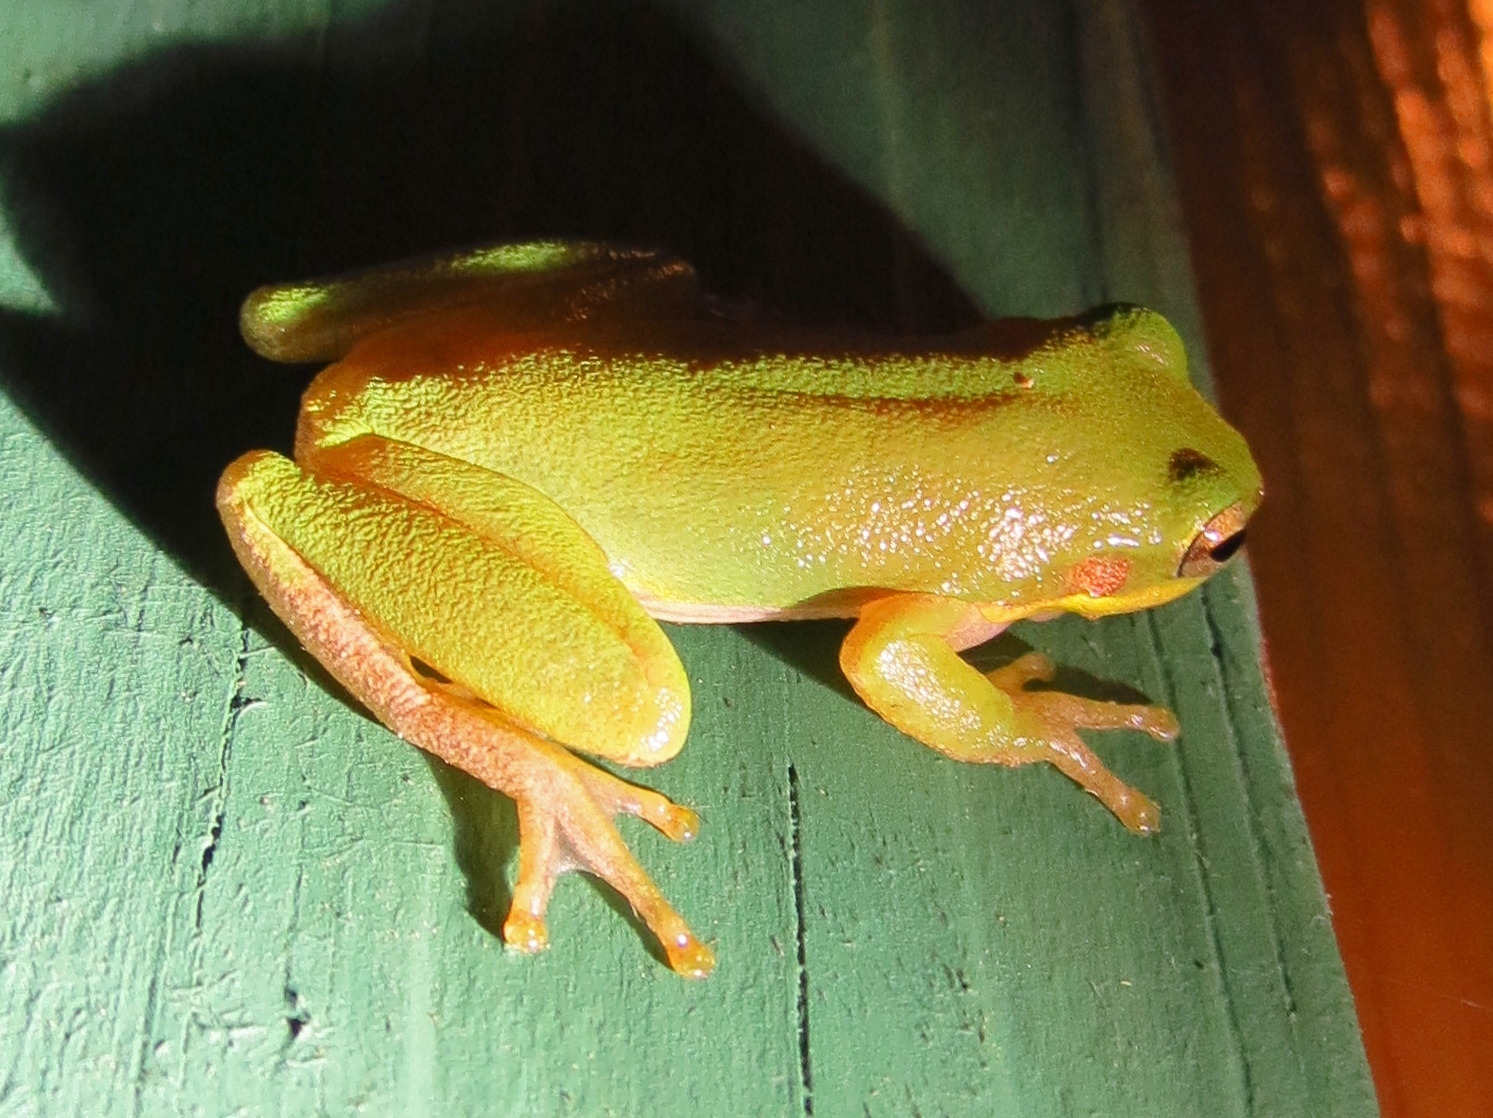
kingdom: Animalia
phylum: Chordata
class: Amphibia
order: Anura
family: Hylidae
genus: Dryophytes
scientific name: Dryophytes squirellus
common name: Squirrel treefrog
